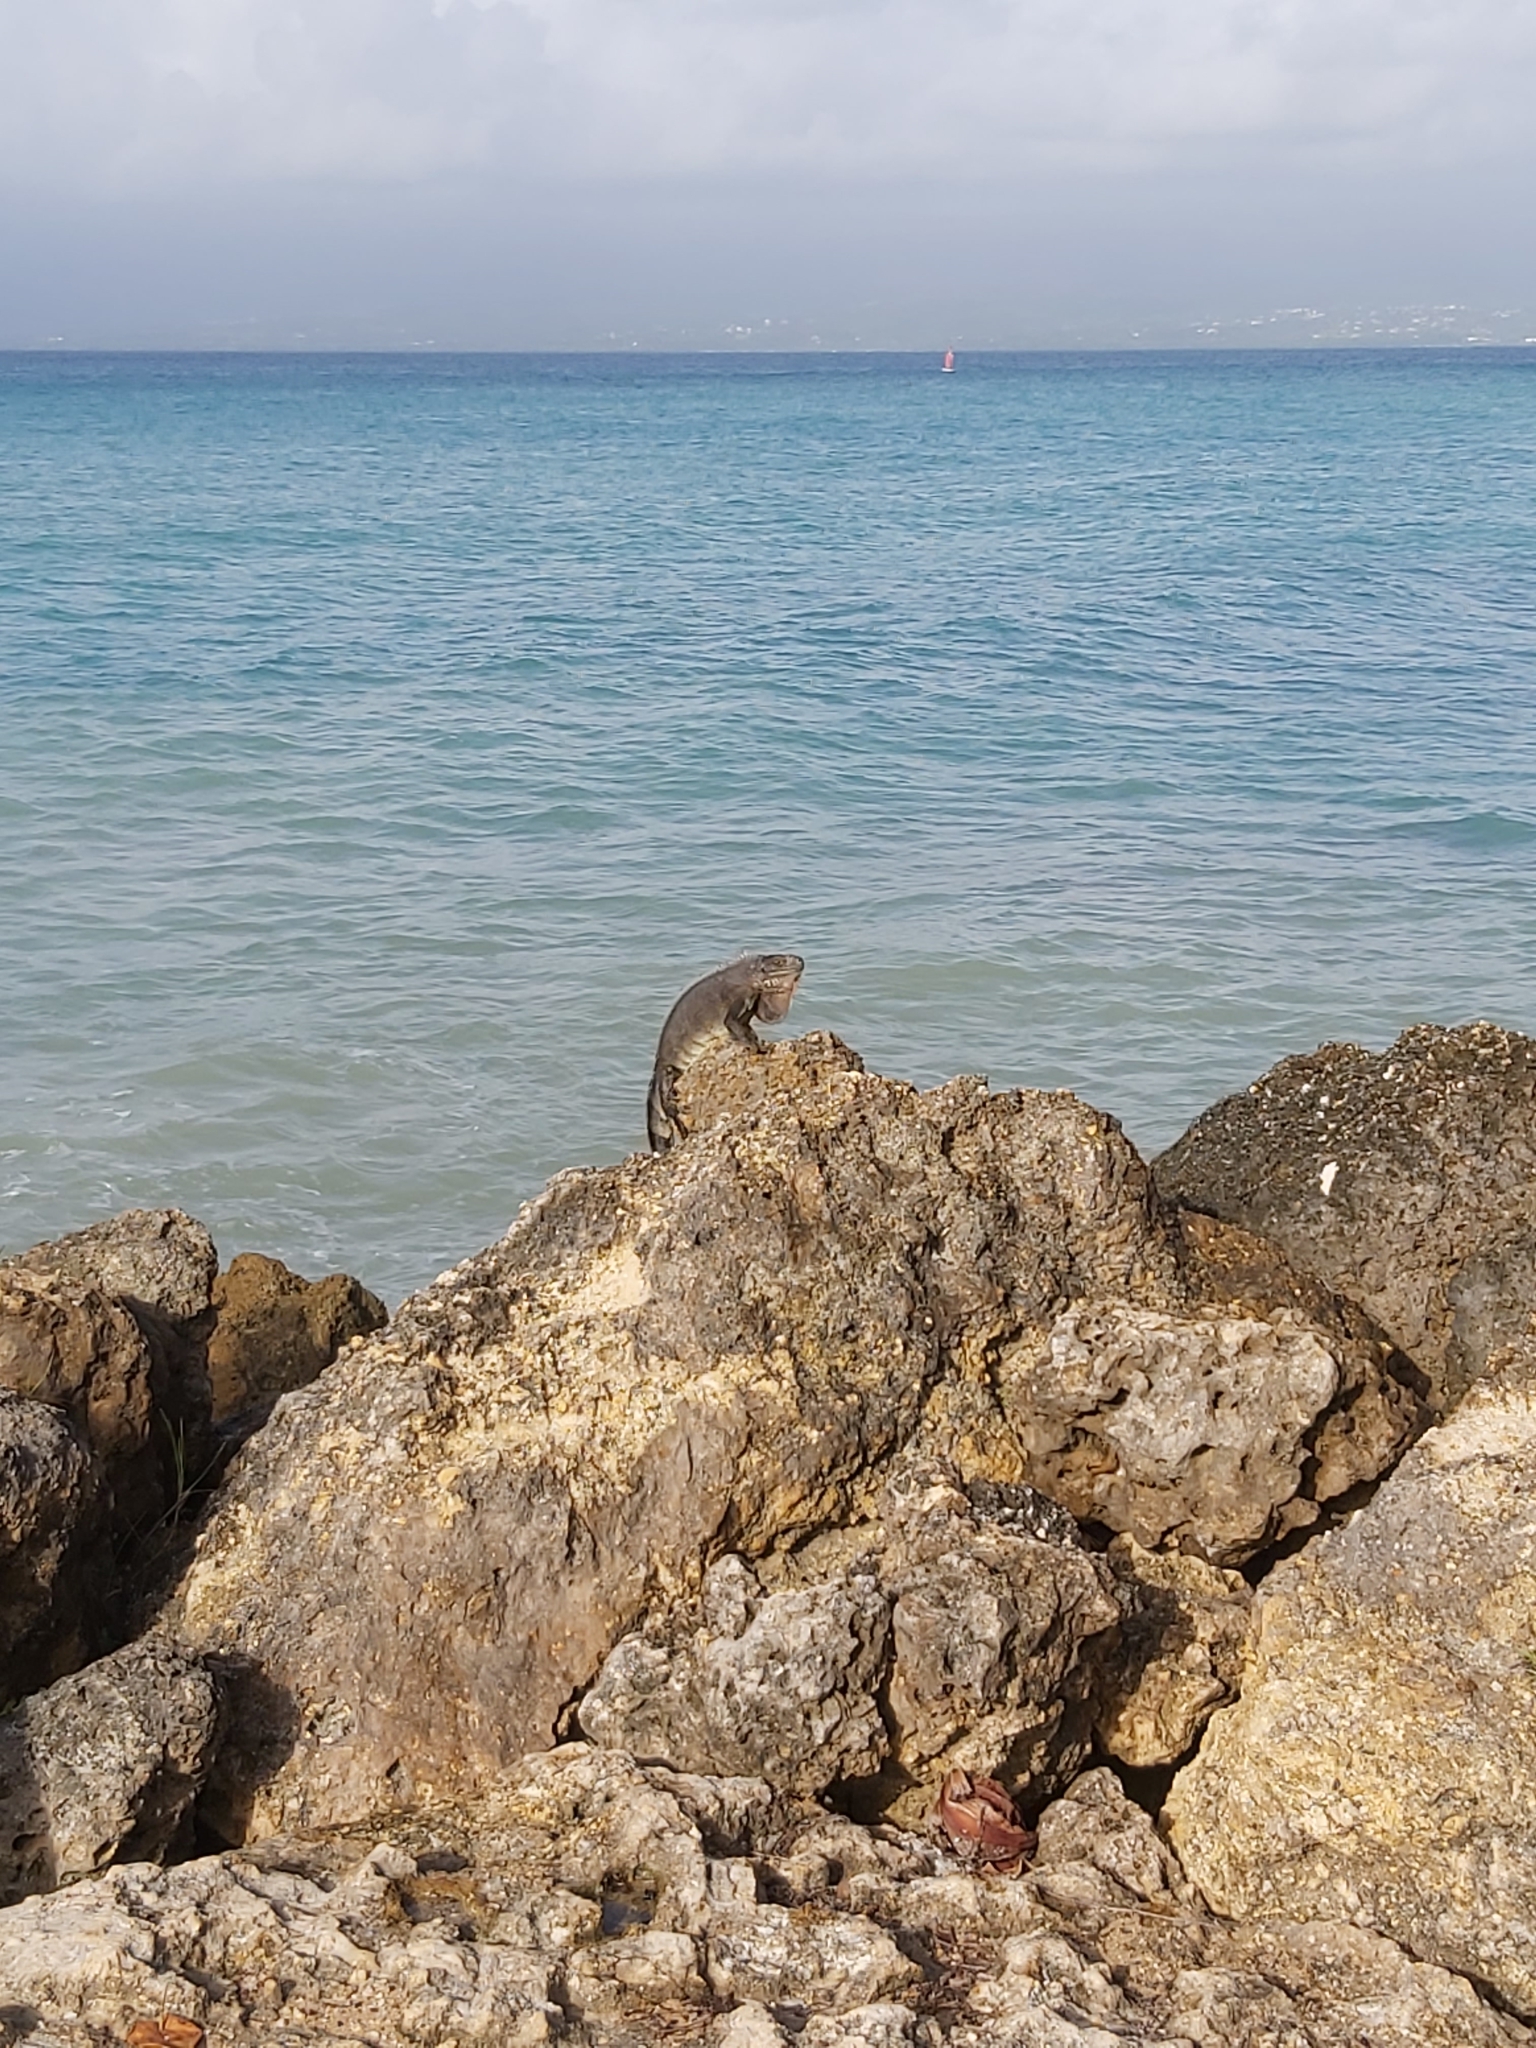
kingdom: Animalia
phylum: Chordata
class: Squamata
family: Iguanidae
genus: Iguana
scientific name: Iguana iguana
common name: Green iguana
